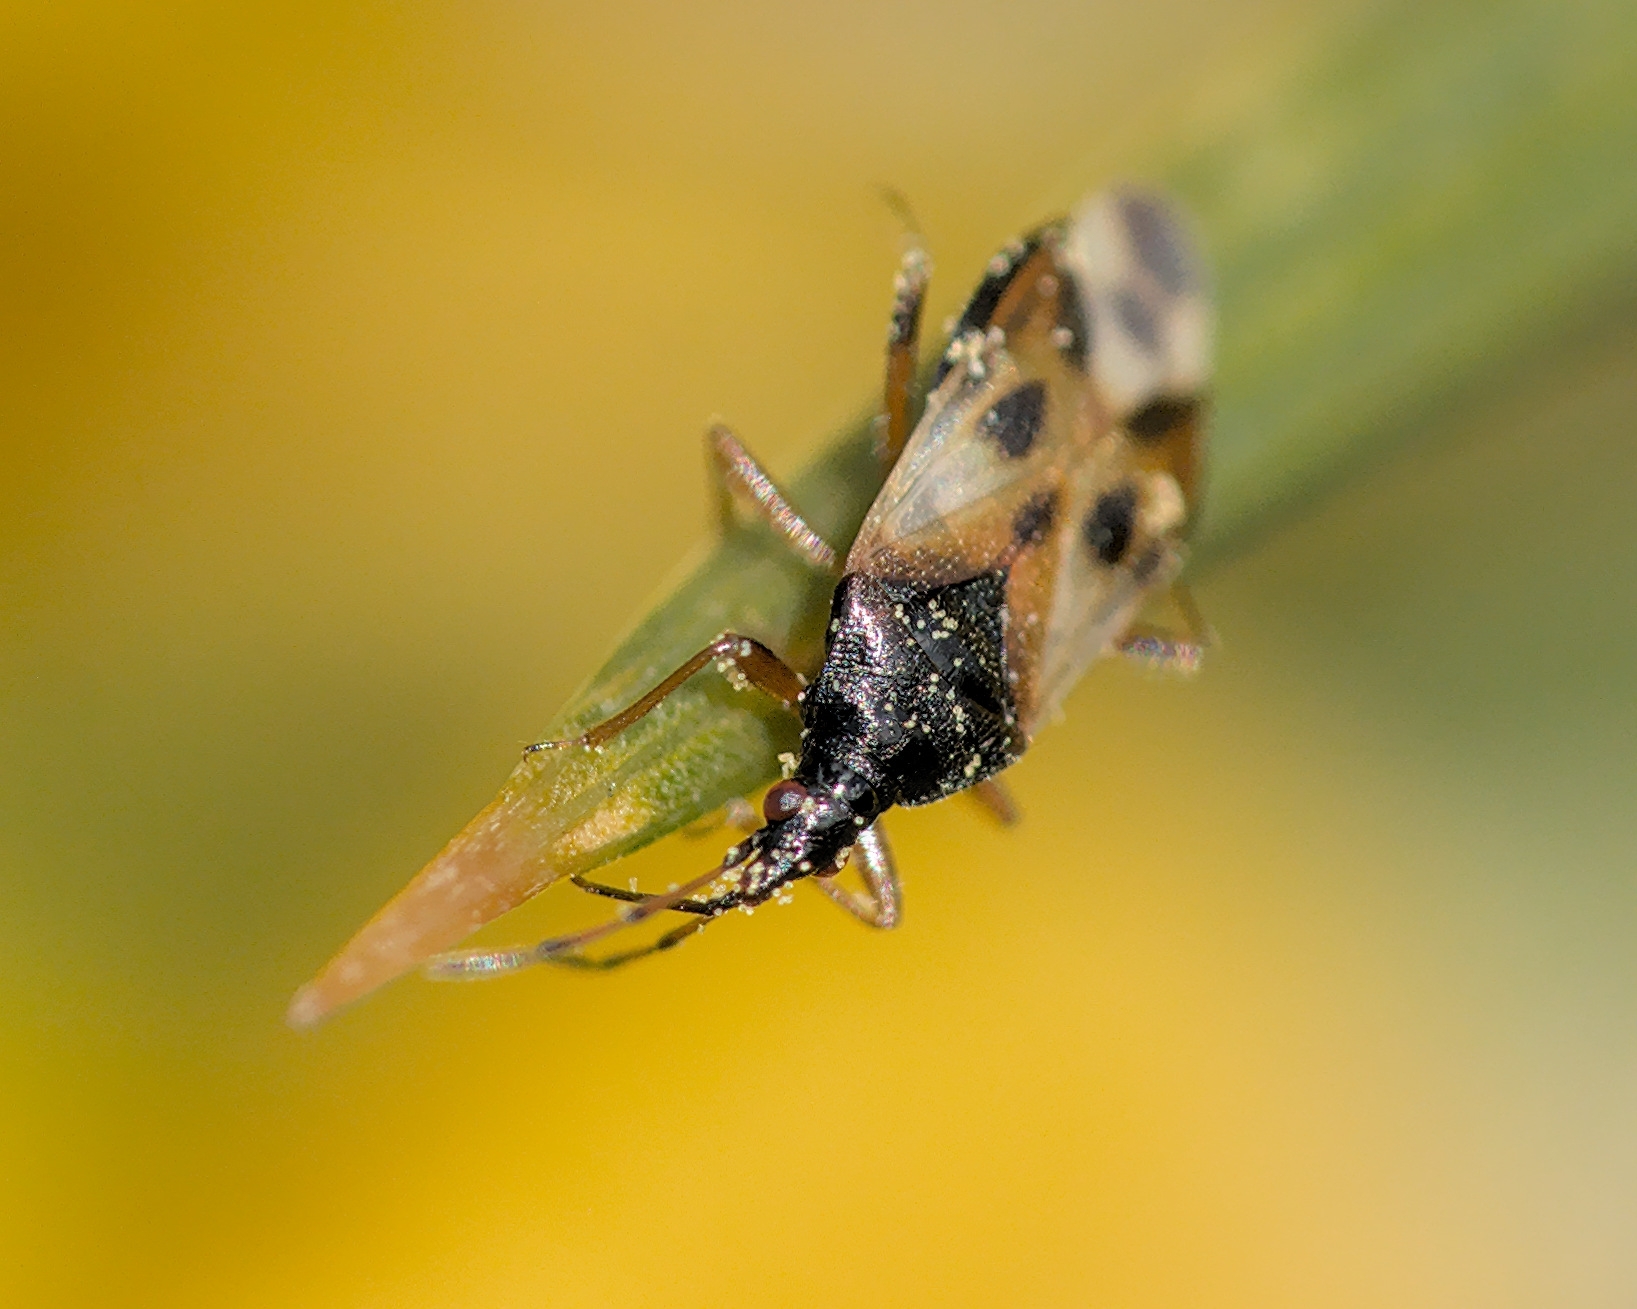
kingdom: Animalia
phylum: Arthropoda
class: Insecta
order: Hemiptera
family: Anthocoridae
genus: Anthocoris
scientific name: Anthocoris nemorum
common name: Minute pirate bug
